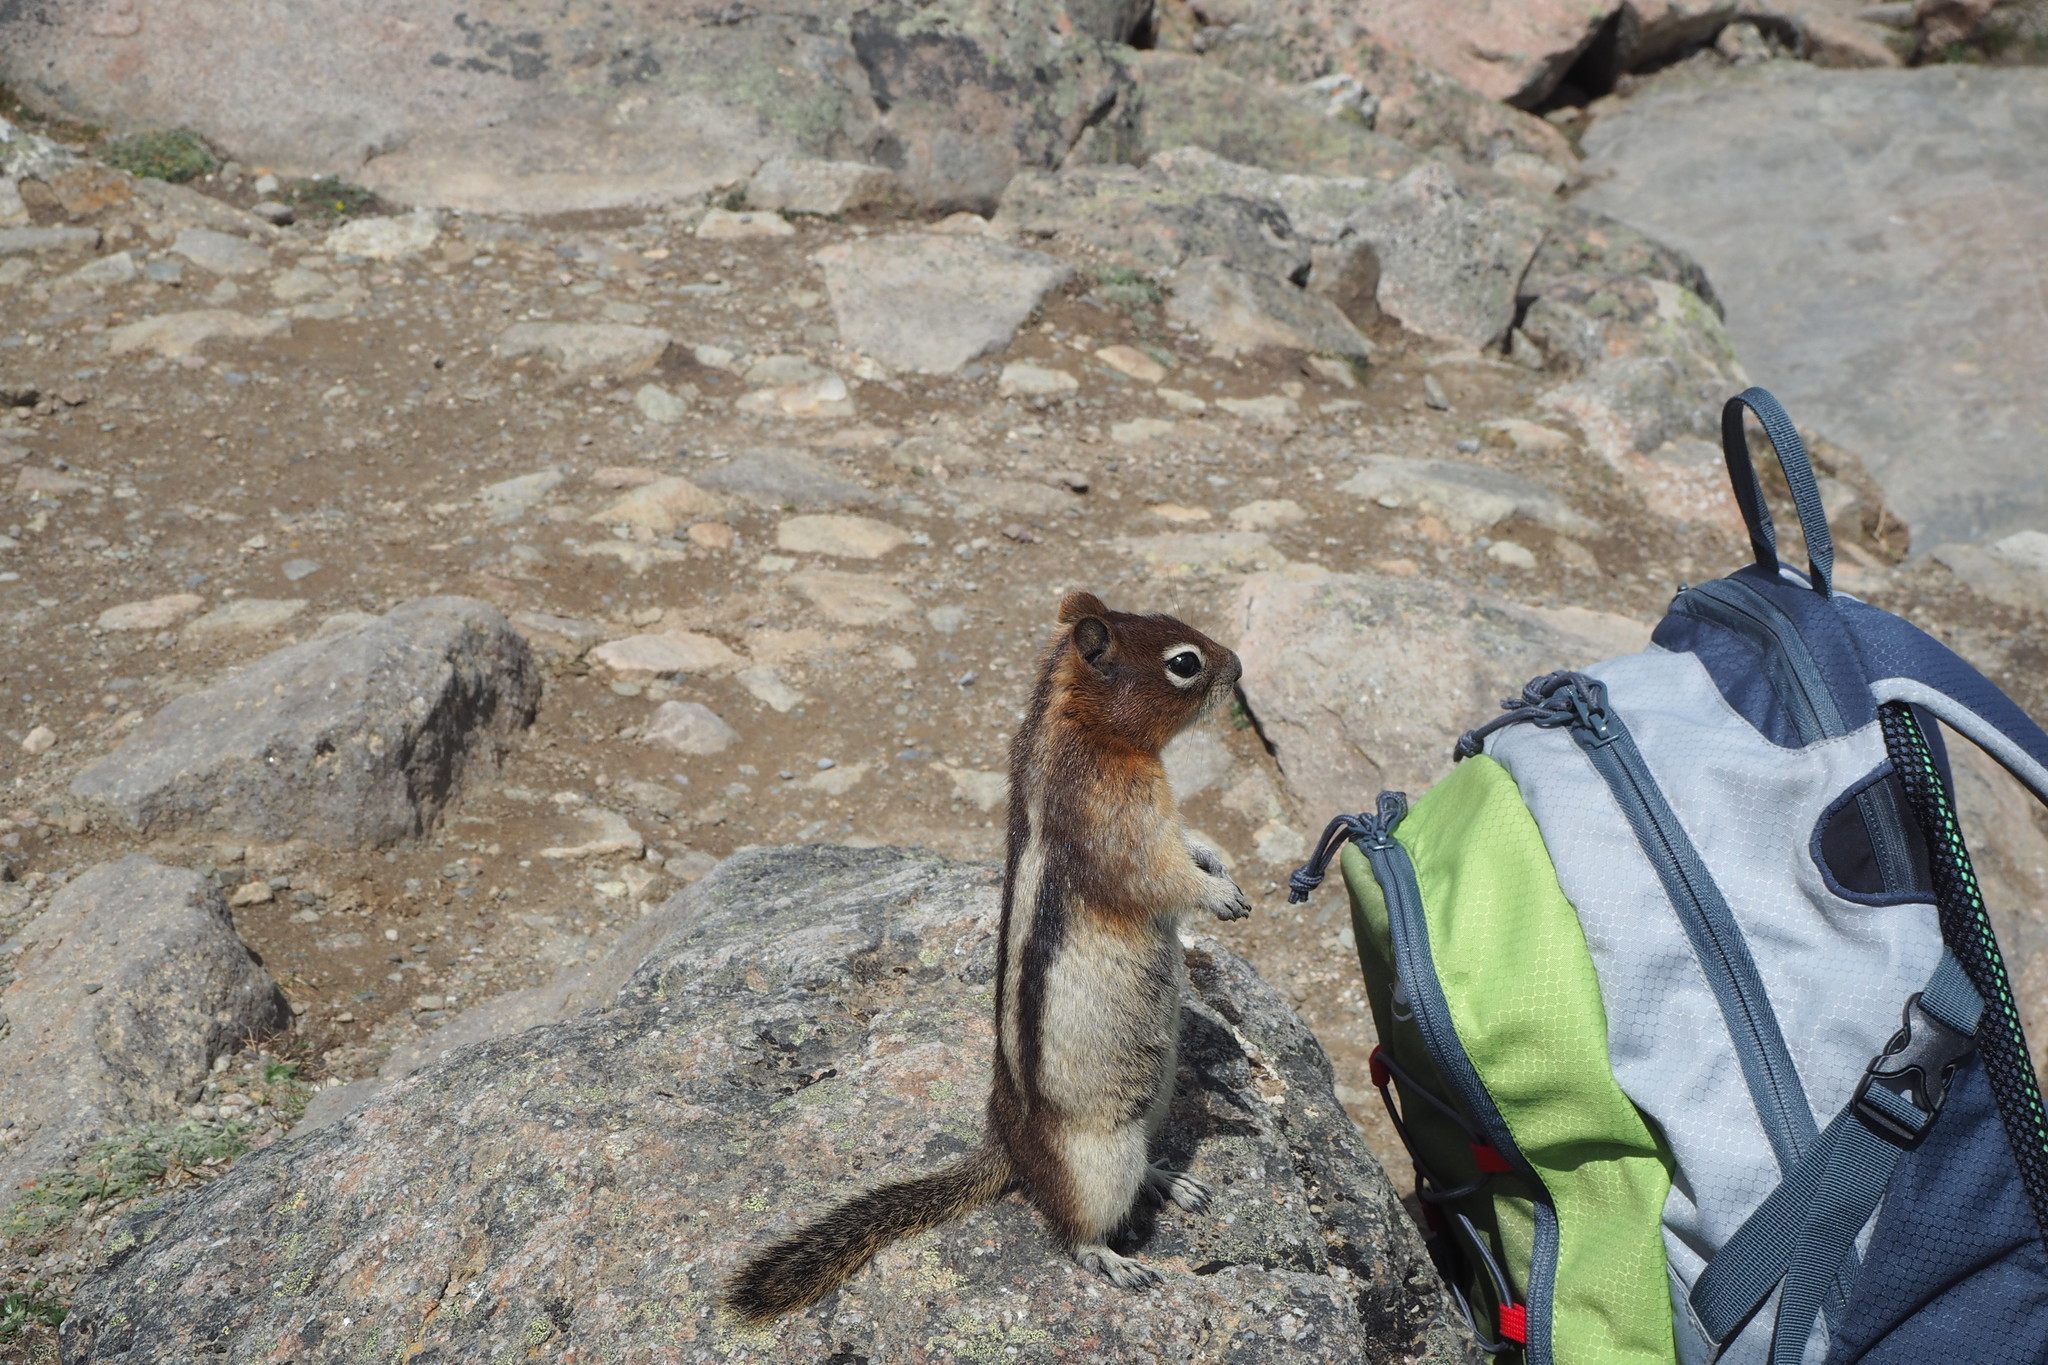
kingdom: Animalia
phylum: Chordata
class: Mammalia
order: Rodentia
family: Sciuridae
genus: Callospermophilus
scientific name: Callospermophilus lateralis
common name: Golden-mantled ground squirrel
